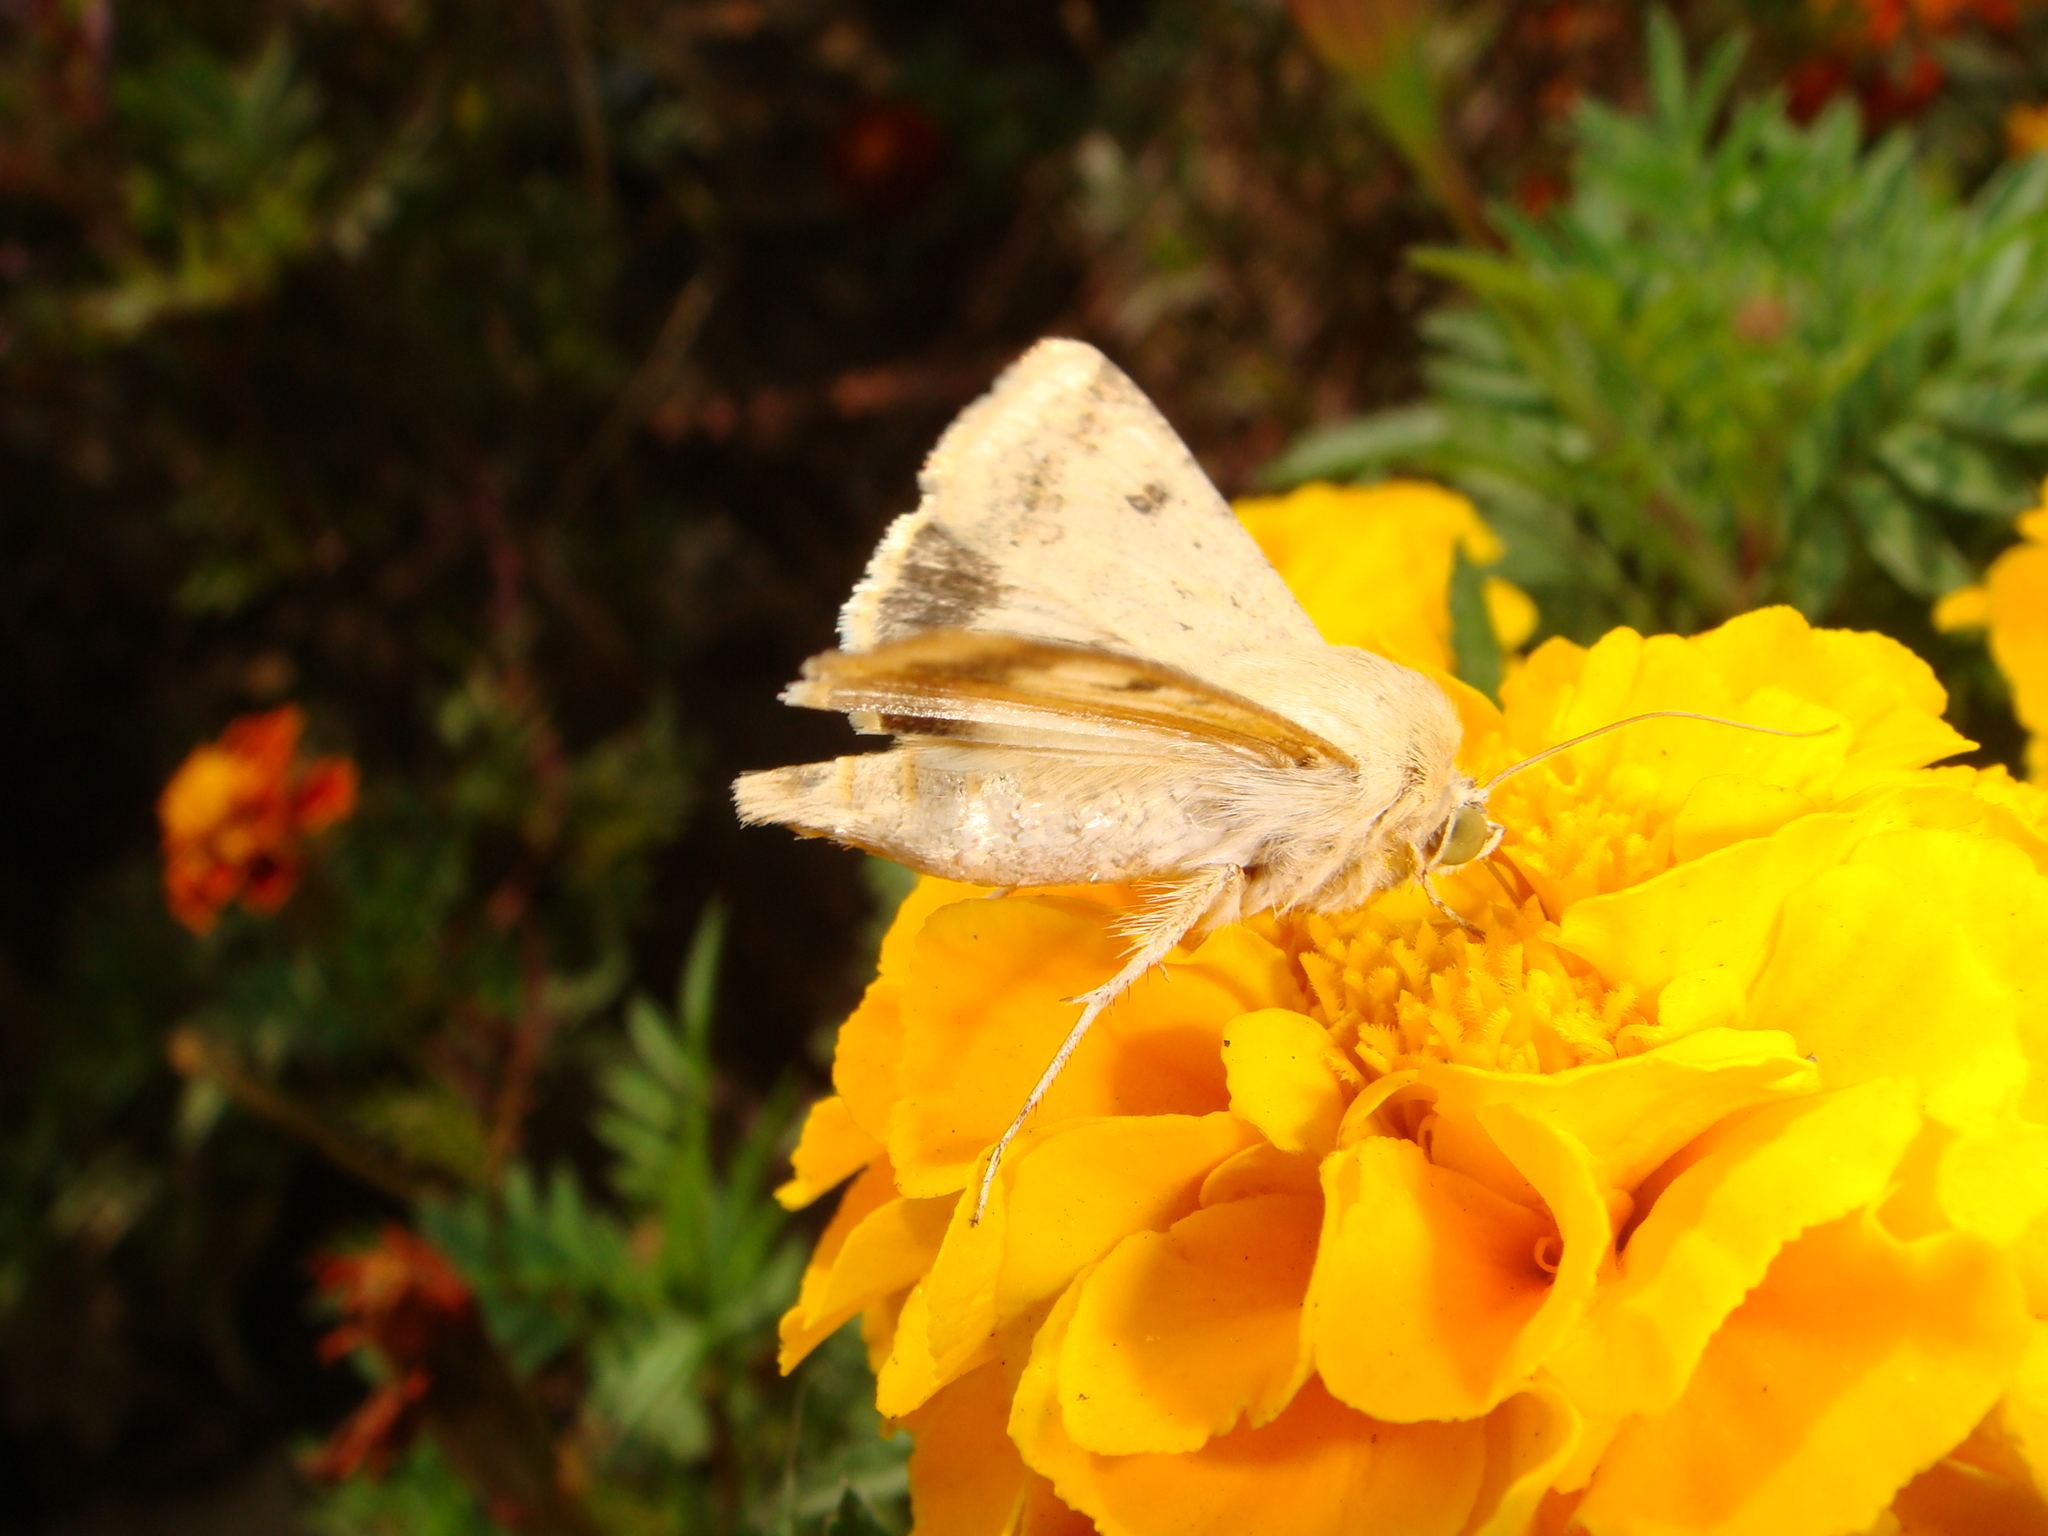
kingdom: Animalia
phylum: Arthropoda
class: Insecta
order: Lepidoptera
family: Noctuidae
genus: Helicoverpa
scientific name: Helicoverpa armigera
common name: Cotton bollworm
